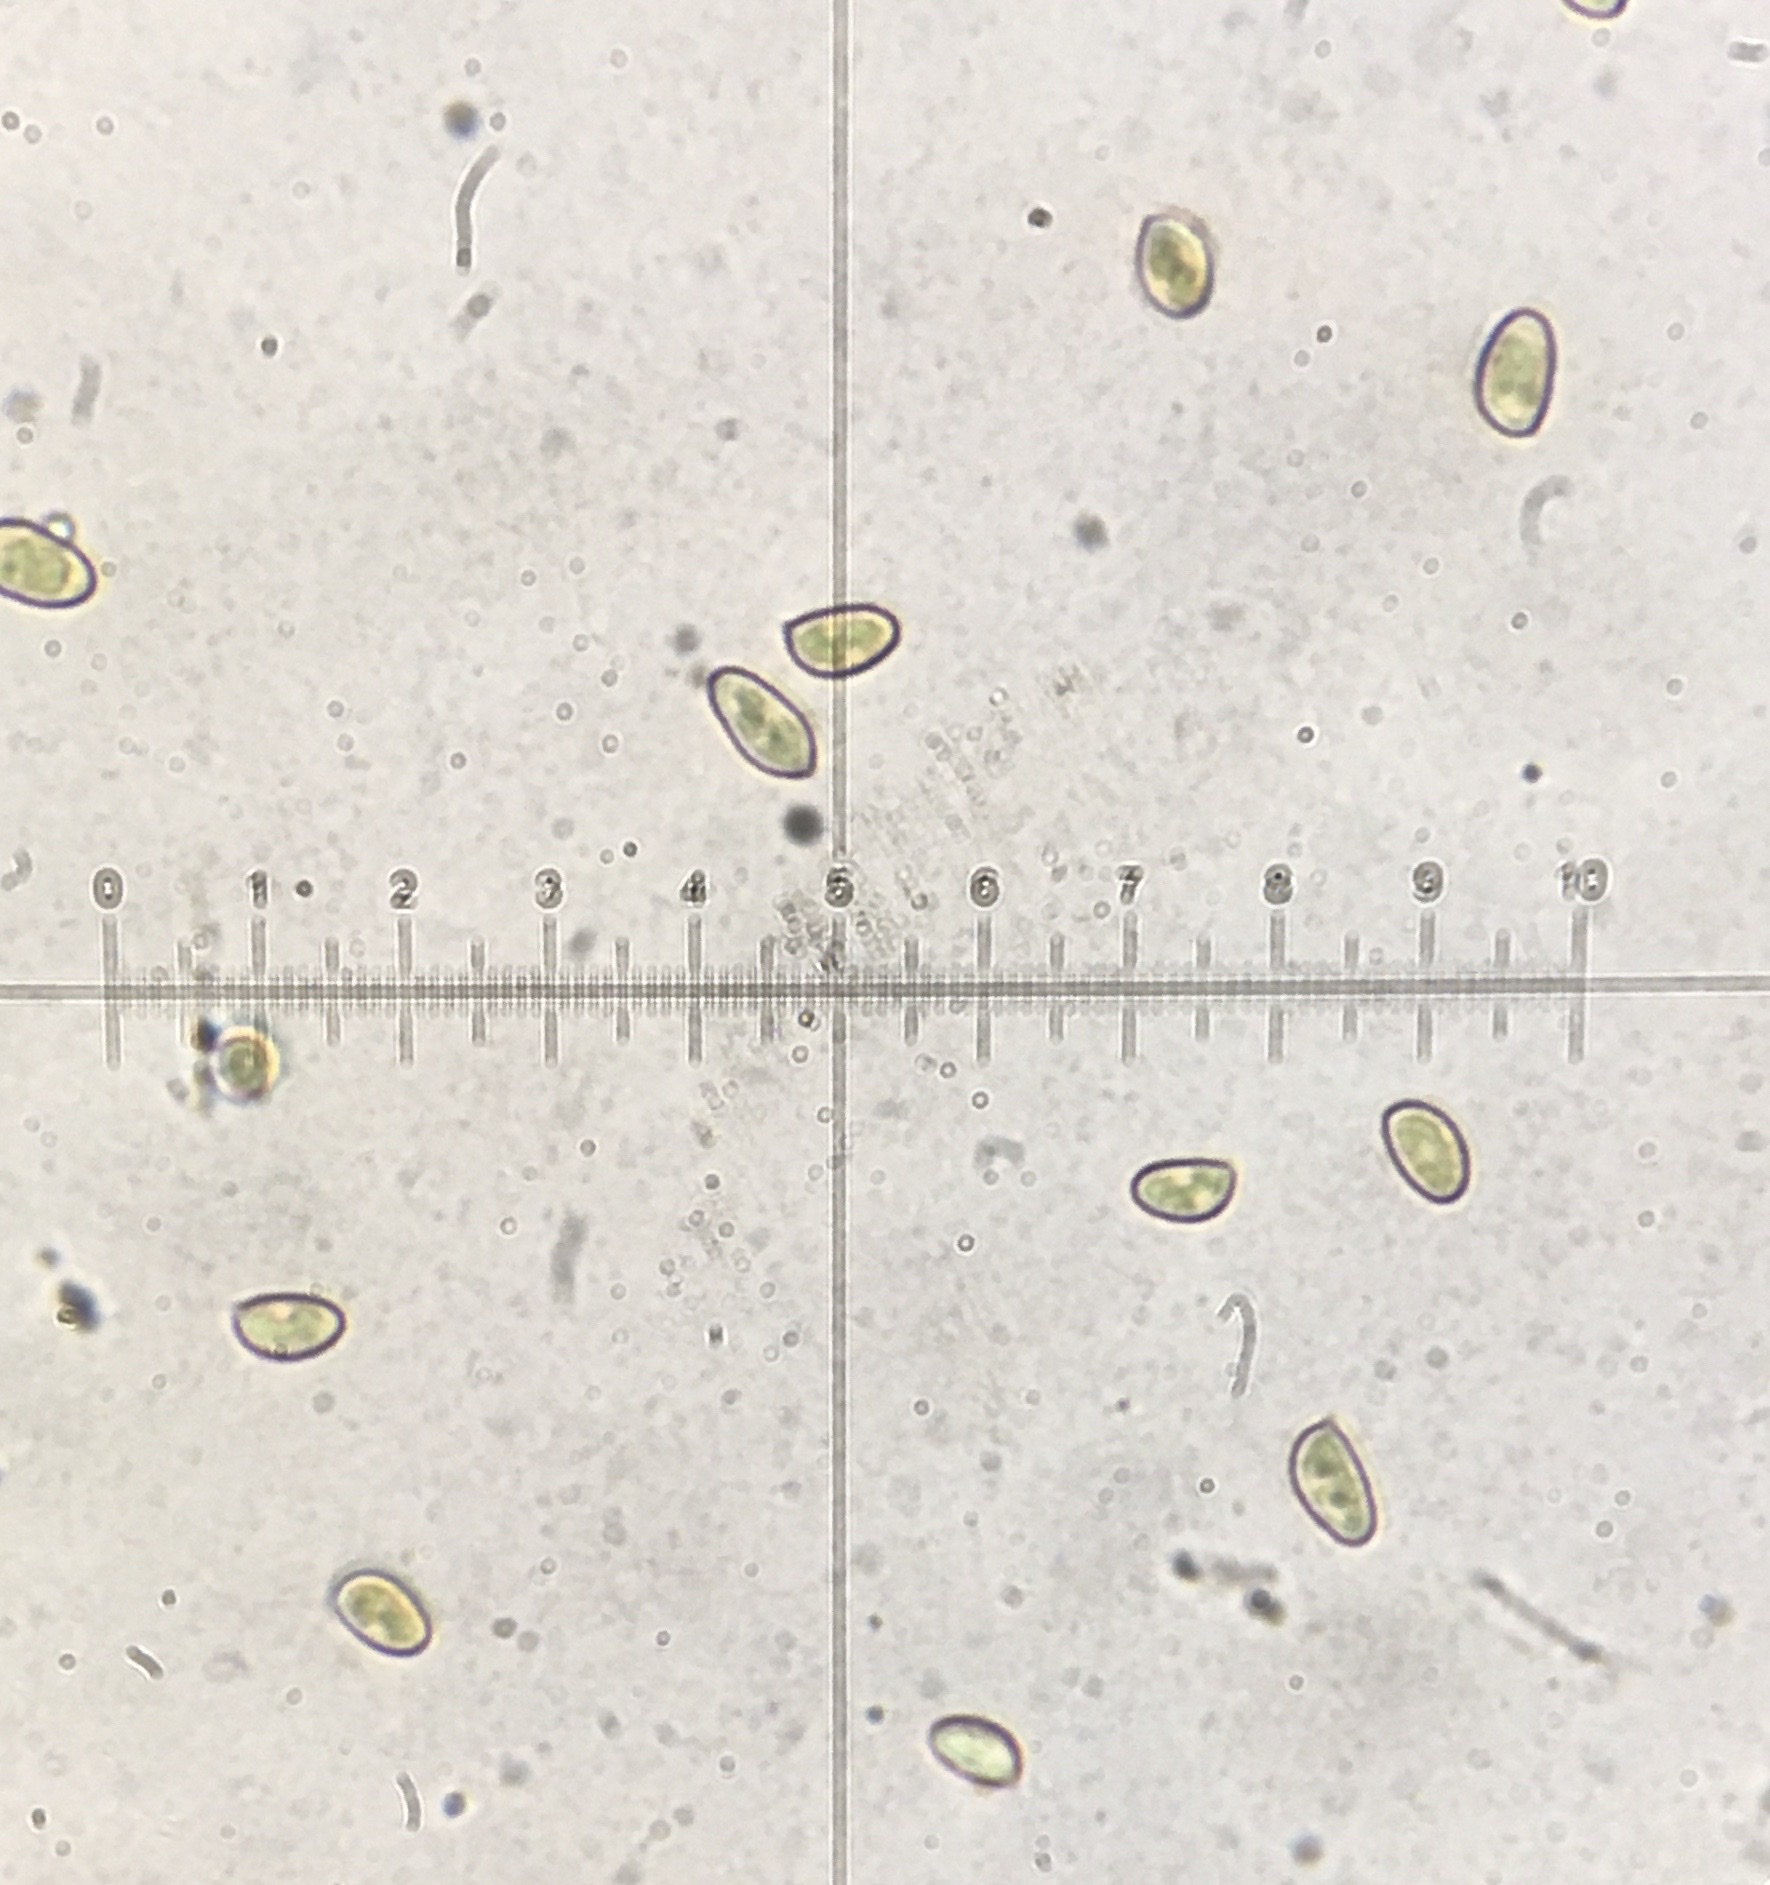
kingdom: Fungi
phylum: Basidiomycota
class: Agaricomycetes
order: Agaricales
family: Cortinariaceae
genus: Thaxterogaster
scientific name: Thaxterogaster vibratilis
